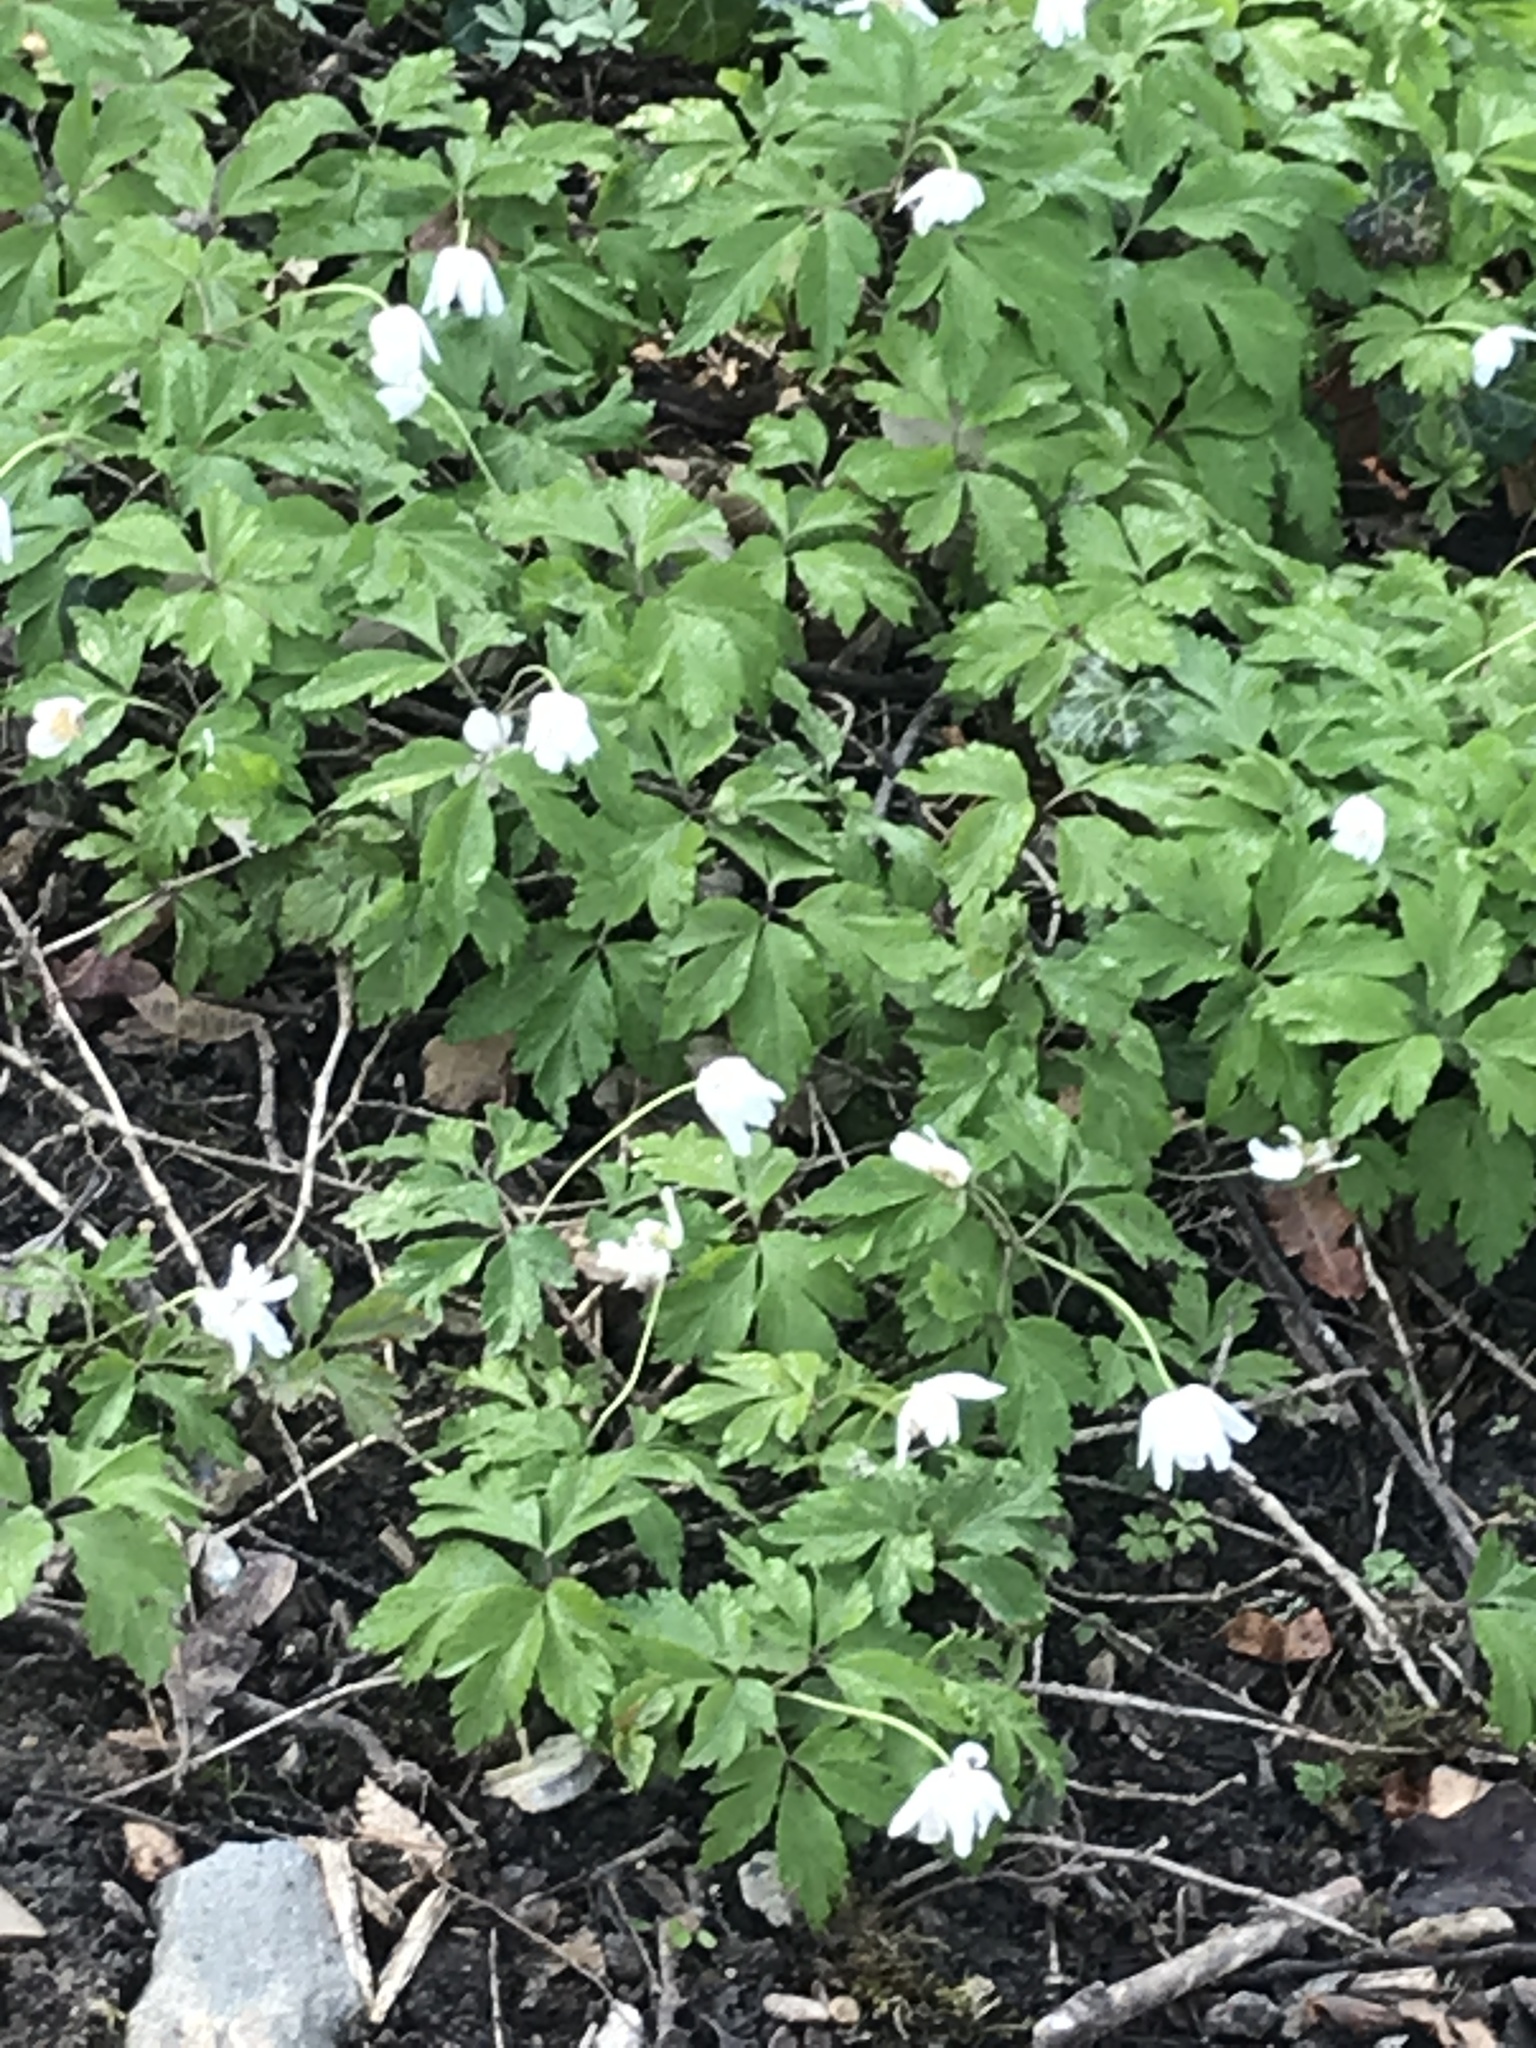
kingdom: Plantae
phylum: Tracheophyta
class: Magnoliopsida
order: Ranunculales
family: Ranunculaceae
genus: Anemone
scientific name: Anemone nemorosa
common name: Wood anemone
